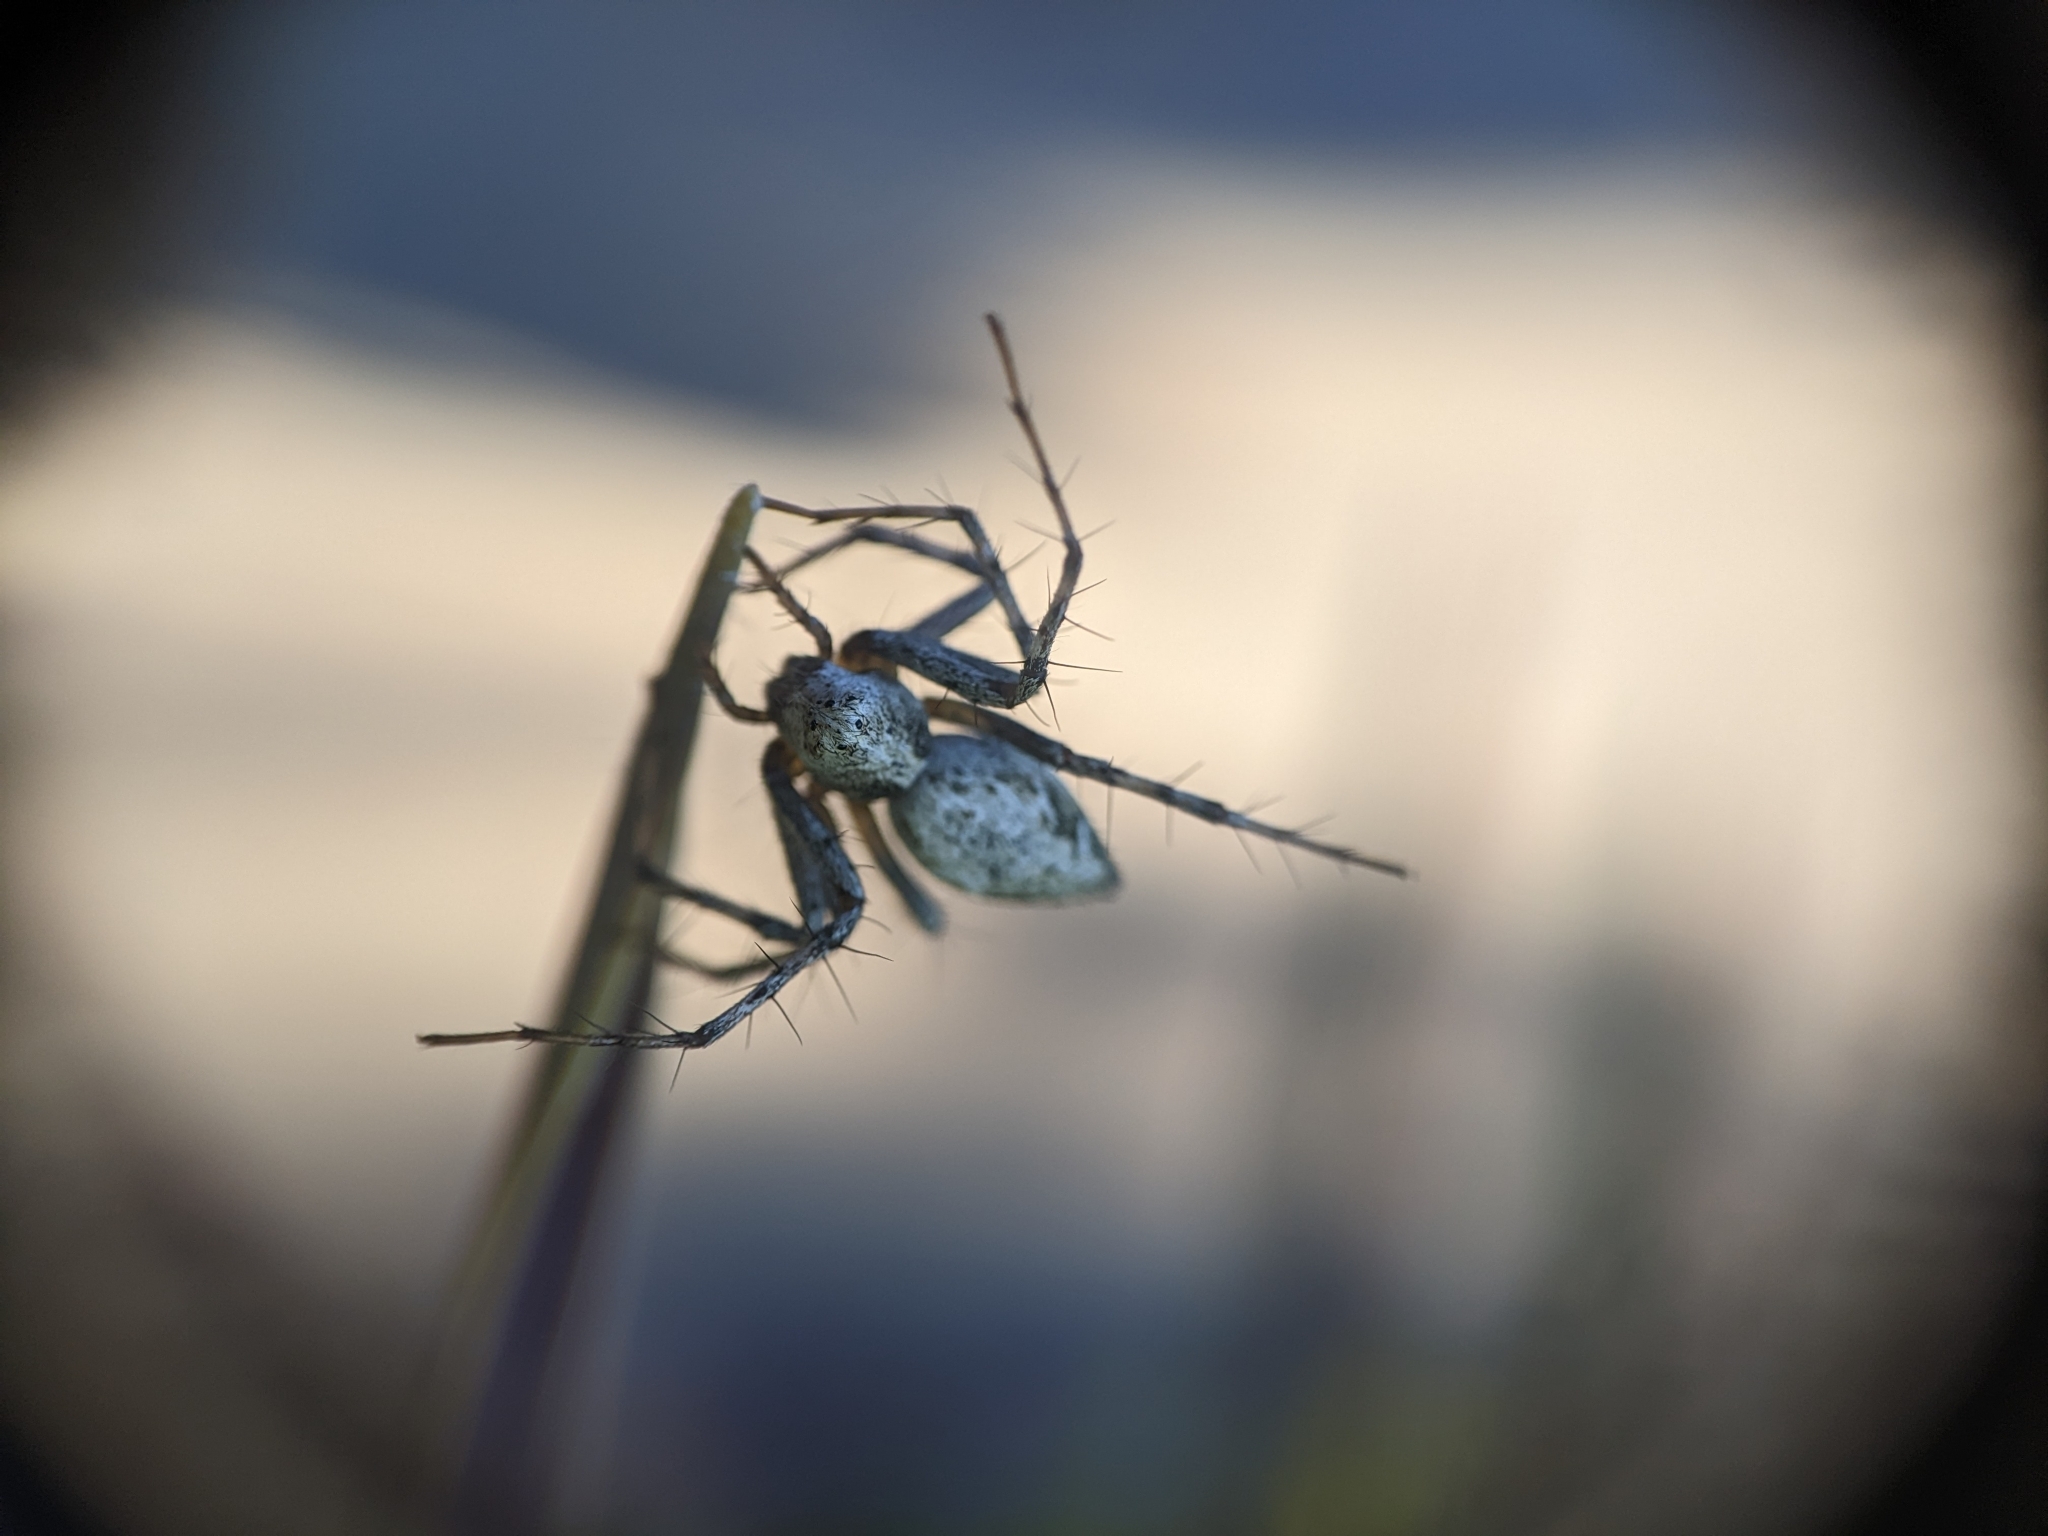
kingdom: Animalia
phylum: Arthropoda
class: Arachnida
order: Araneae
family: Oxyopidae
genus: Oxyopes
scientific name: Oxyopes scalaris
